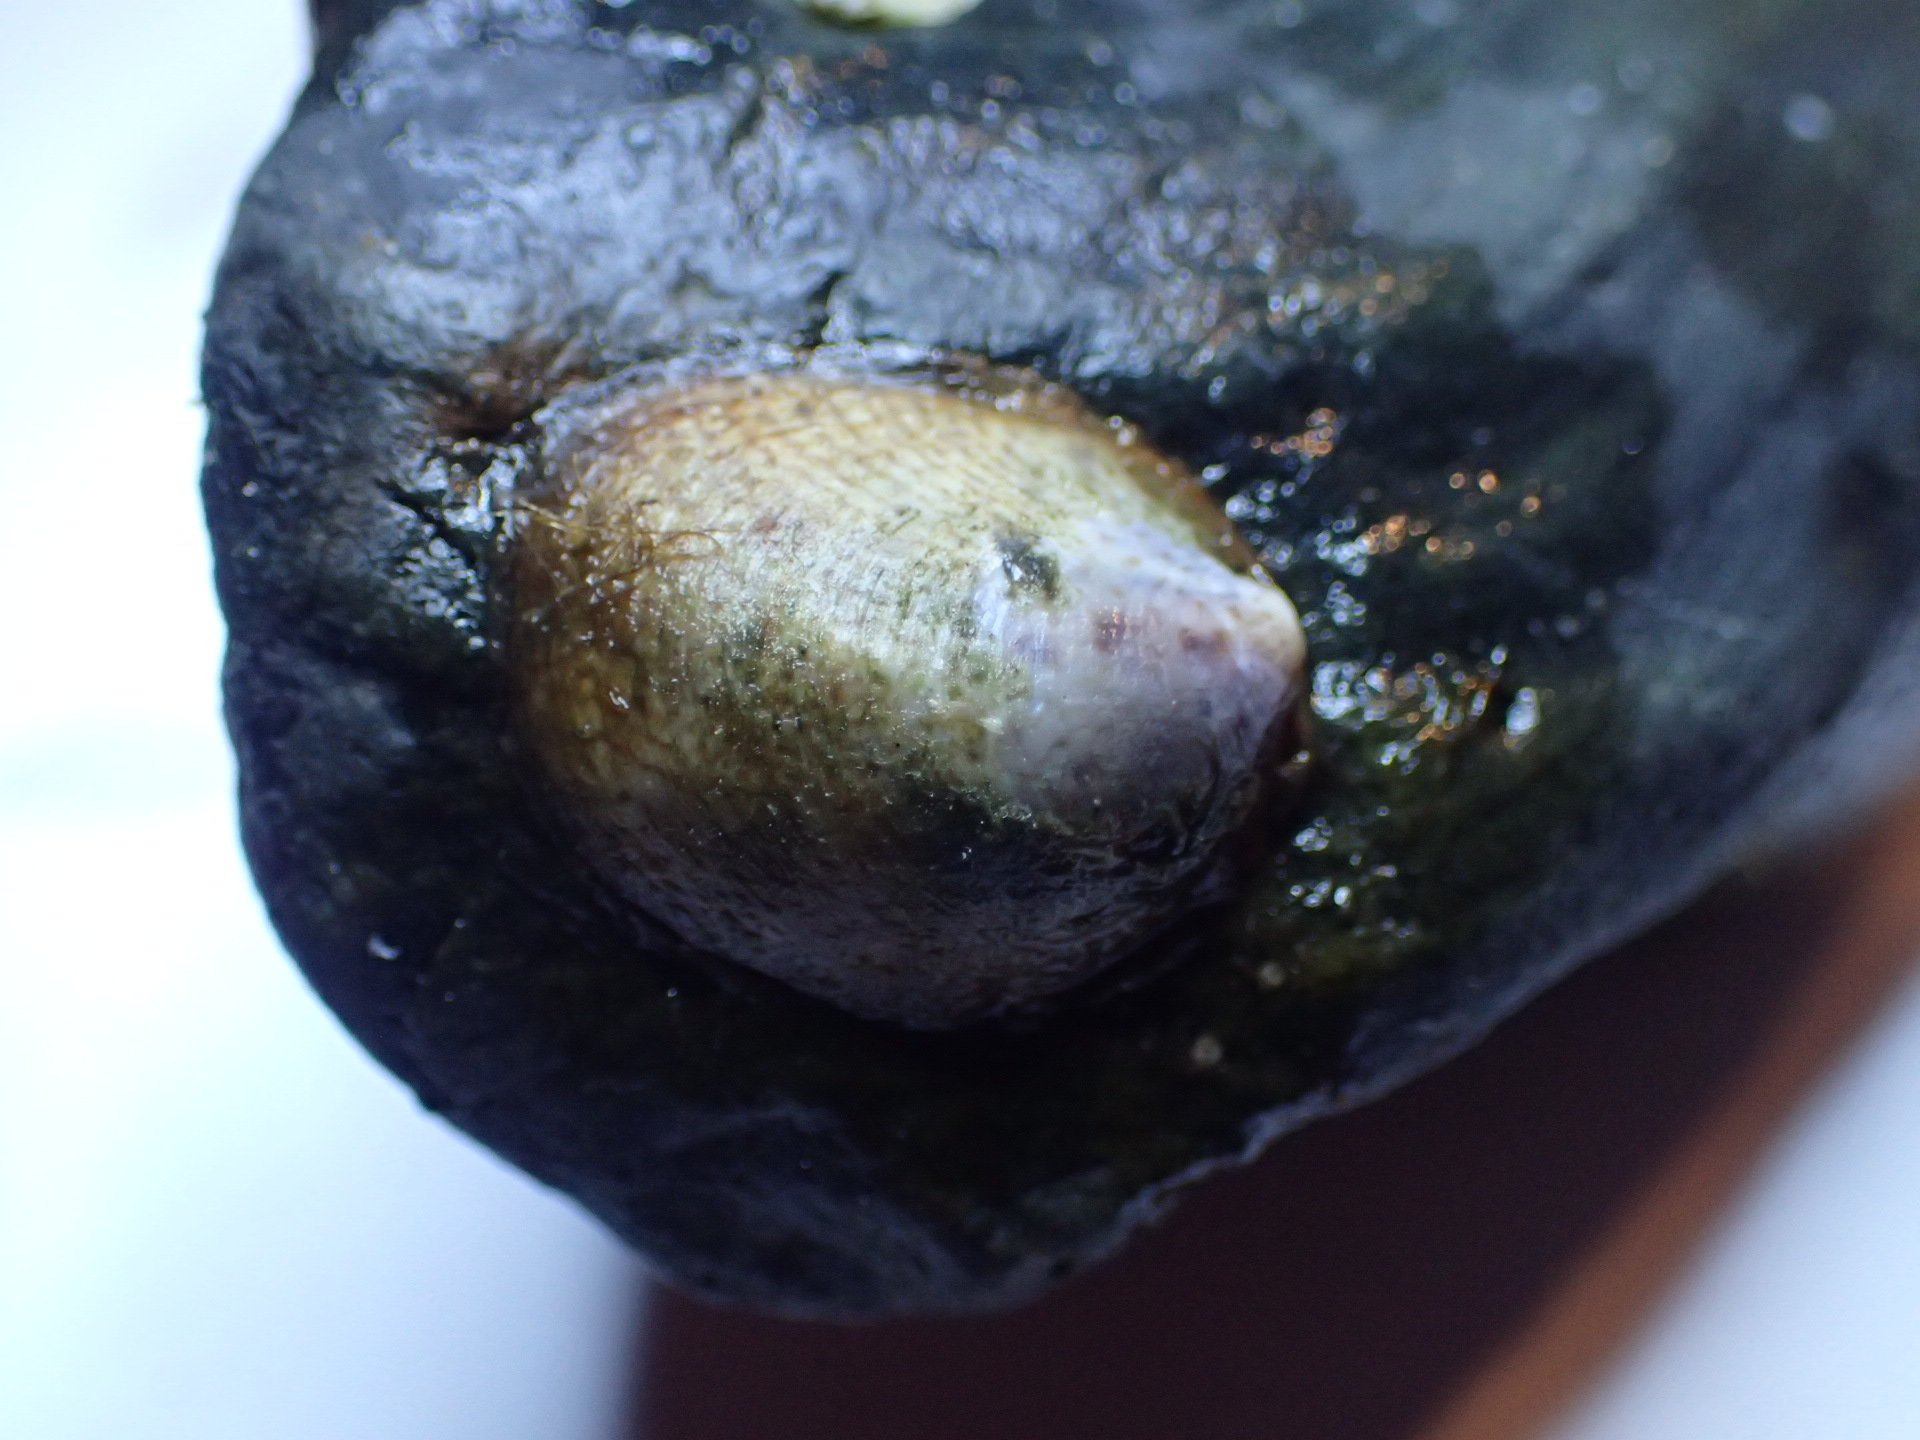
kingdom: Animalia
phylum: Mollusca
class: Gastropoda
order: Littorinimorpha
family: Calyptraeidae
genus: Crepidula
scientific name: Crepidula fornicata
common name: Slipper limpet
